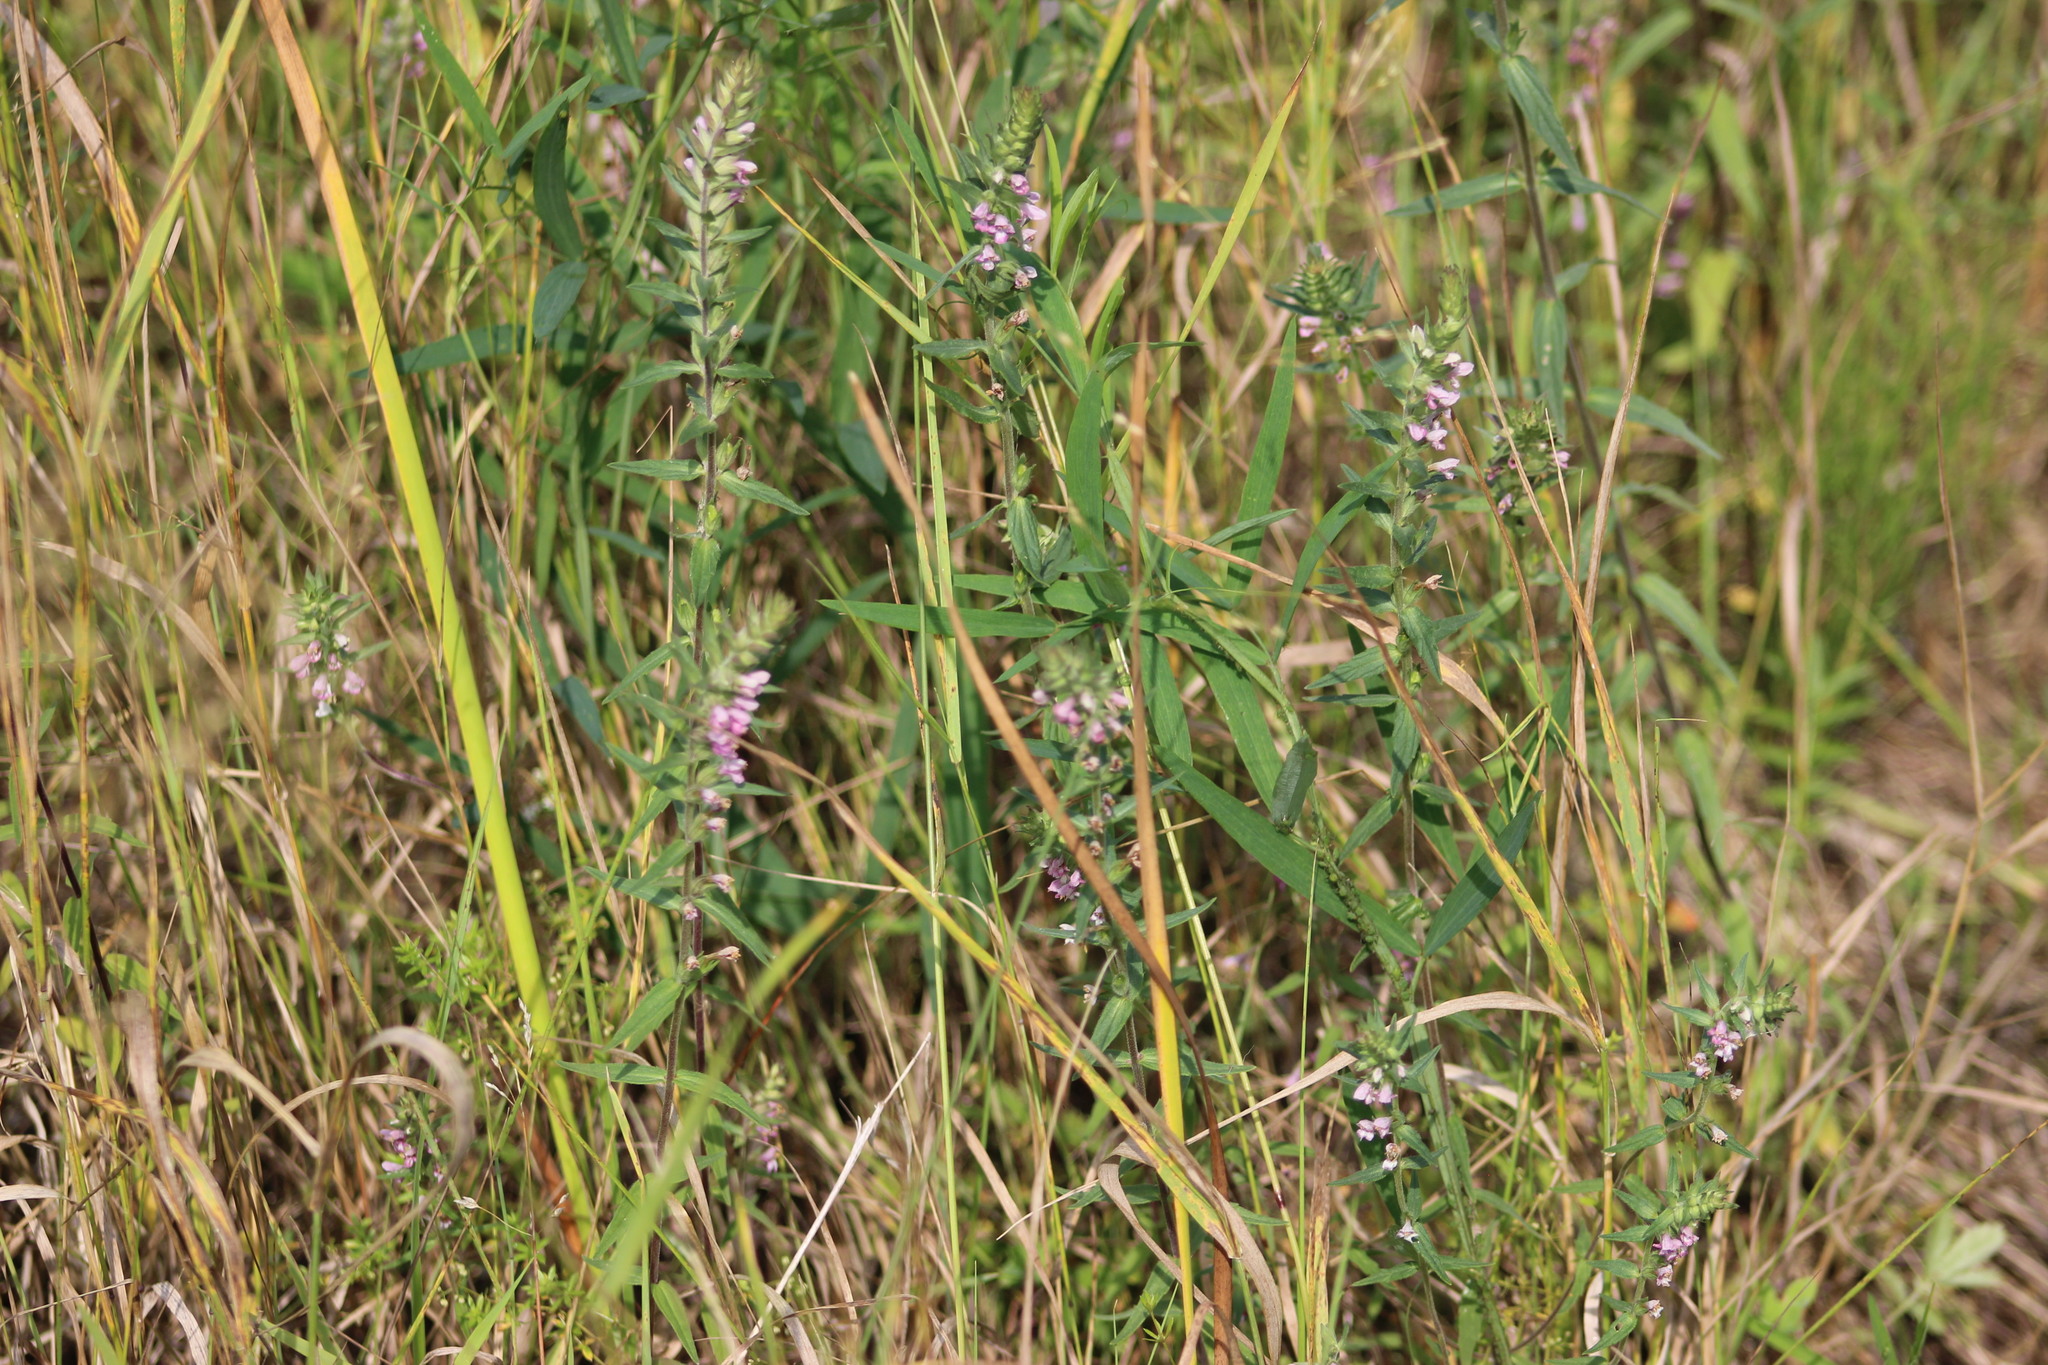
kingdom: Plantae
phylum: Tracheophyta
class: Magnoliopsida
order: Lamiales
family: Orobanchaceae
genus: Odontites
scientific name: Odontites vulgaris
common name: Broomrape
